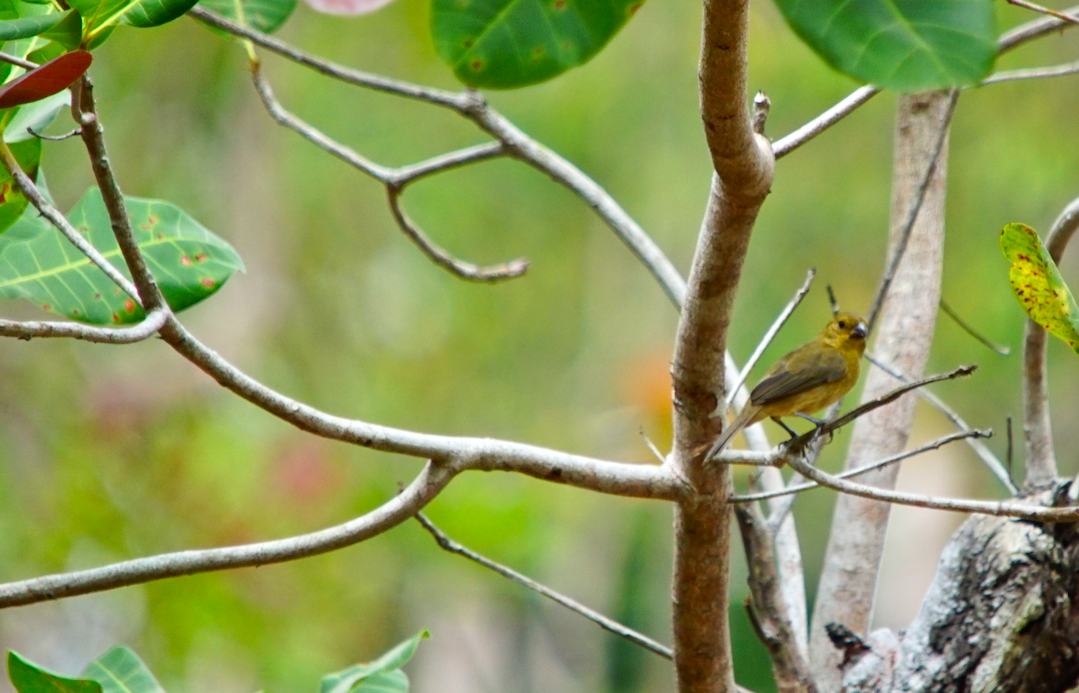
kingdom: Animalia
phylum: Chordata
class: Aves
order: Passeriformes
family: Thraupidae
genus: Sporophila
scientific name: Sporophila corvina
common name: Variable seedeater
